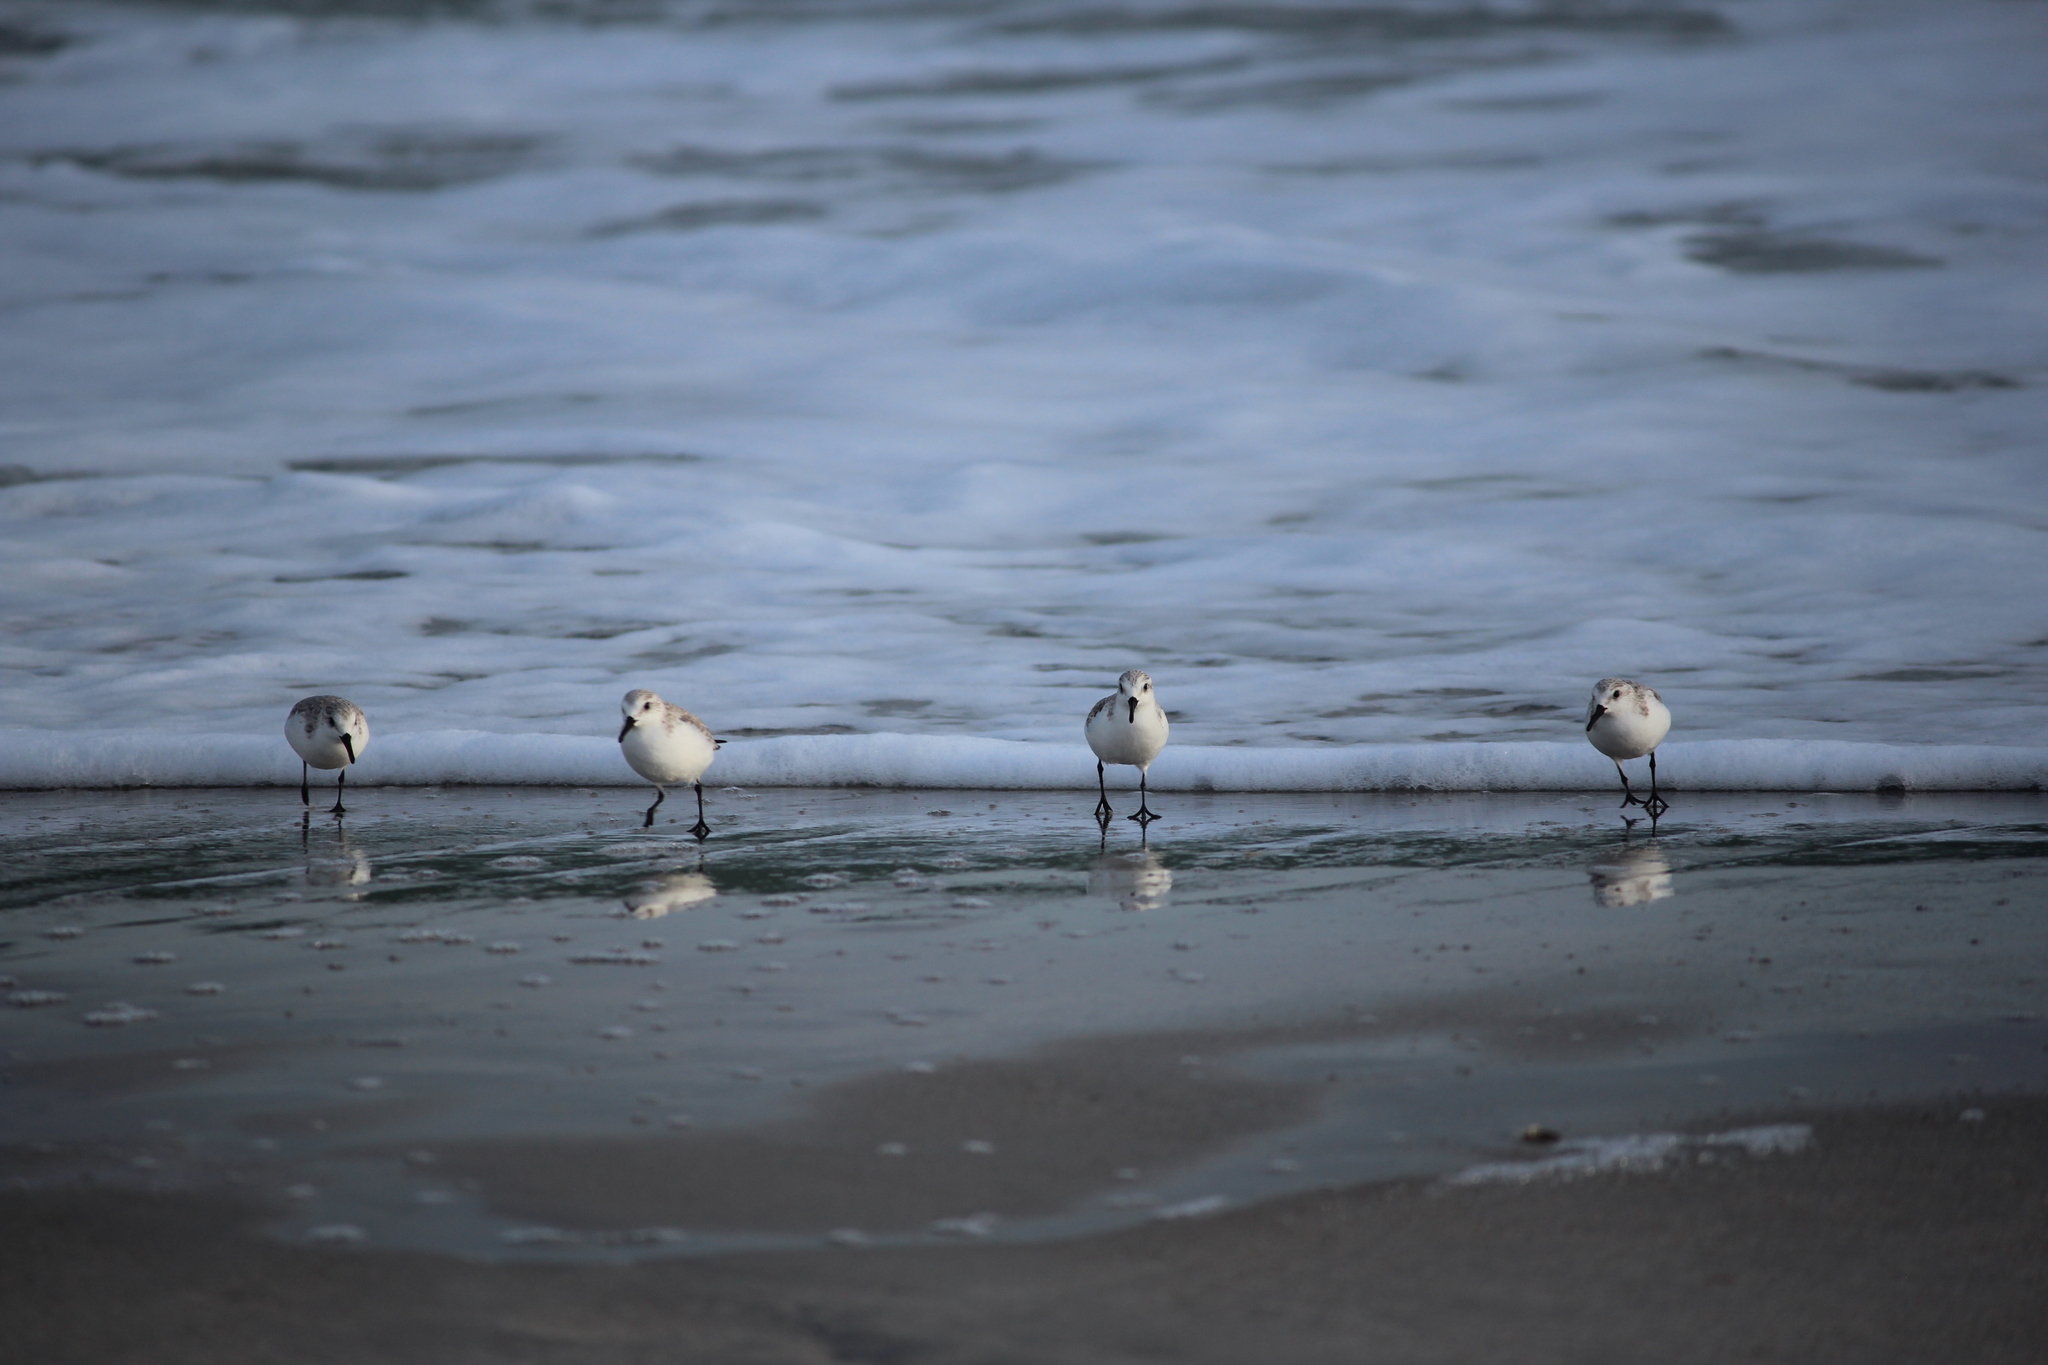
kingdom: Animalia
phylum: Chordata
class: Aves
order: Charadriiformes
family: Scolopacidae
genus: Calidris
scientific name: Calidris alba
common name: Sanderling
